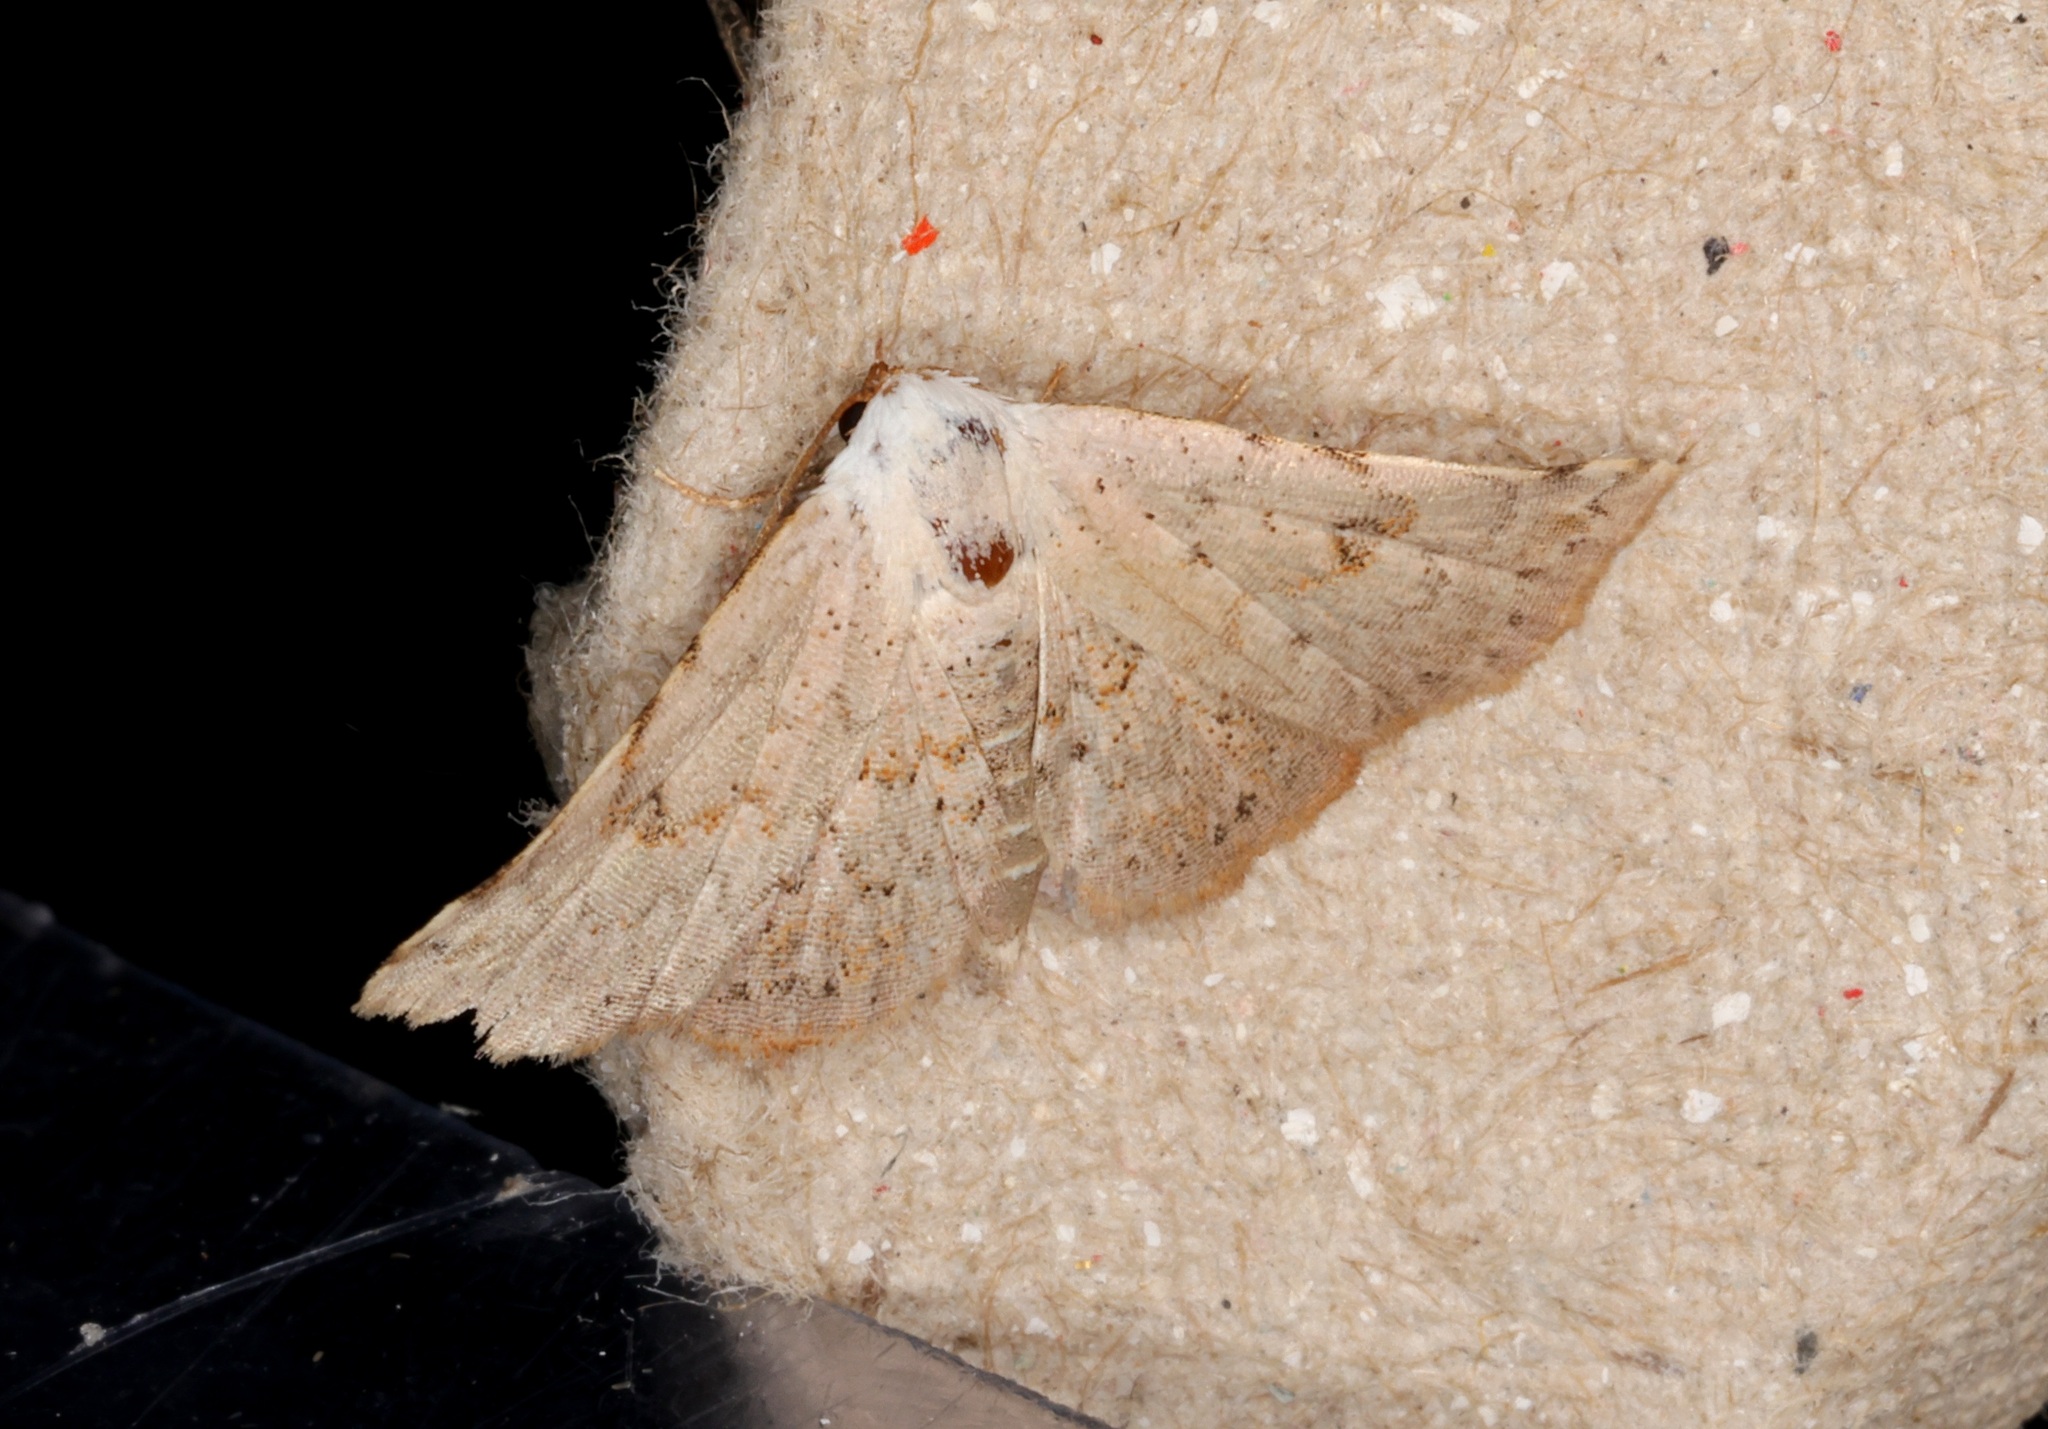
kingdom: Animalia
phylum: Arthropoda
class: Insecta
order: Lepidoptera
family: Noctuidae
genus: Eublemma
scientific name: Eublemma rufiplaga
